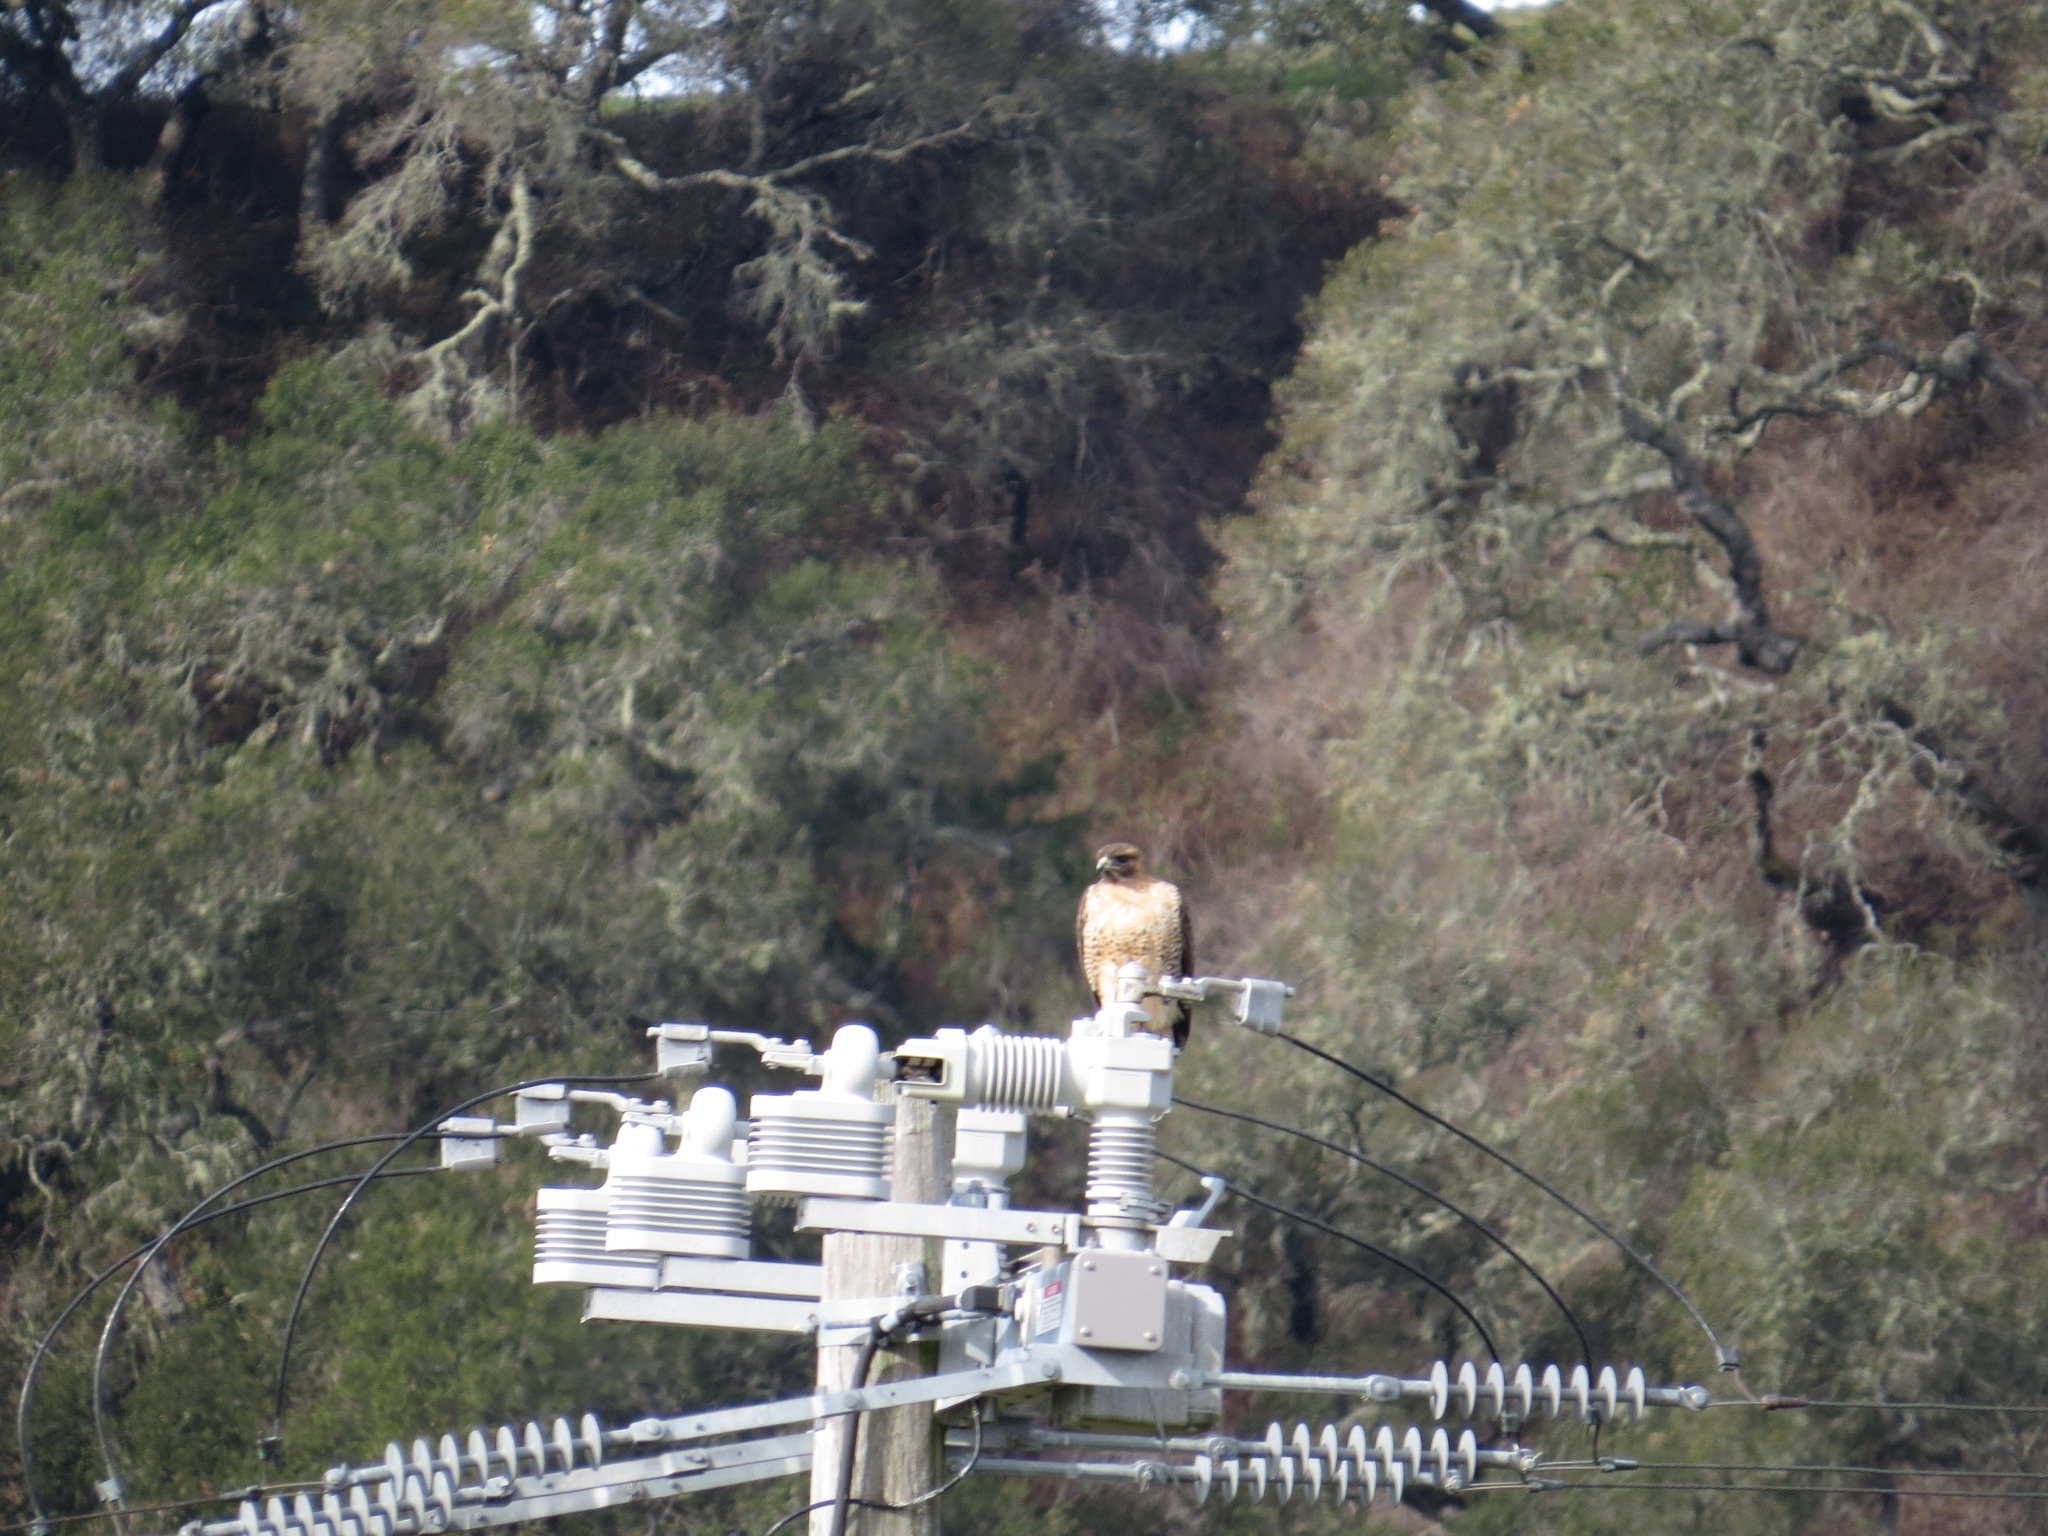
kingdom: Animalia
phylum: Chordata
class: Aves
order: Accipitriformes
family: Accipitridae
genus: Buteo
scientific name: Buteo jamaicensis
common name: Red-tailed hawk
